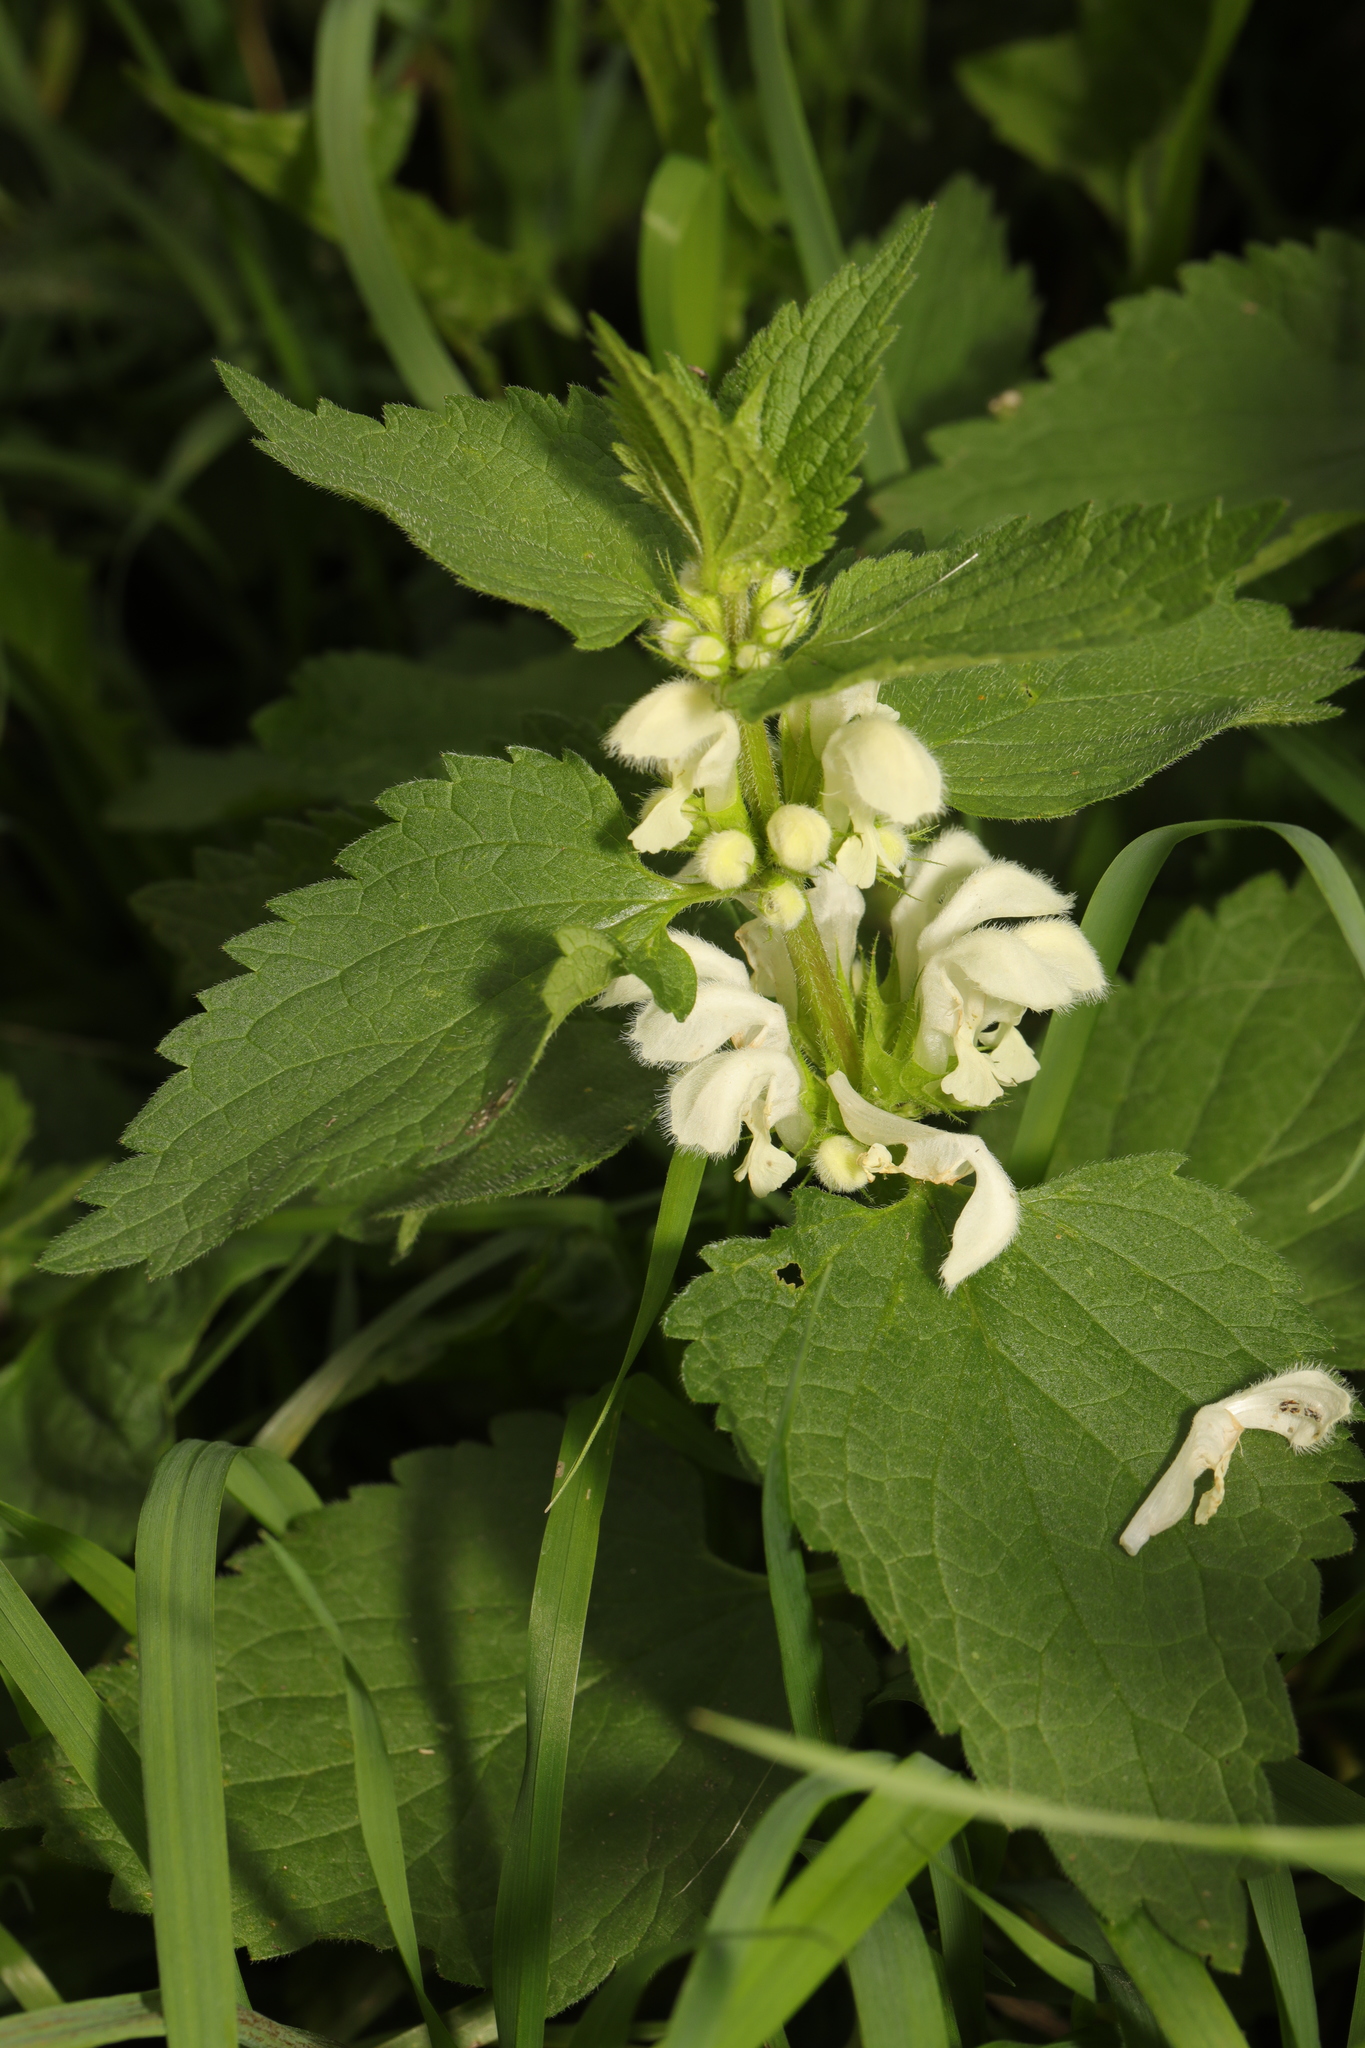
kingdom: Plantae
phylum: Tracheophyta
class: Magnoliopsida
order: Lamiales
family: Lamiaceae
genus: Lamium
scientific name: Lamium album
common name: White dead-nettle
